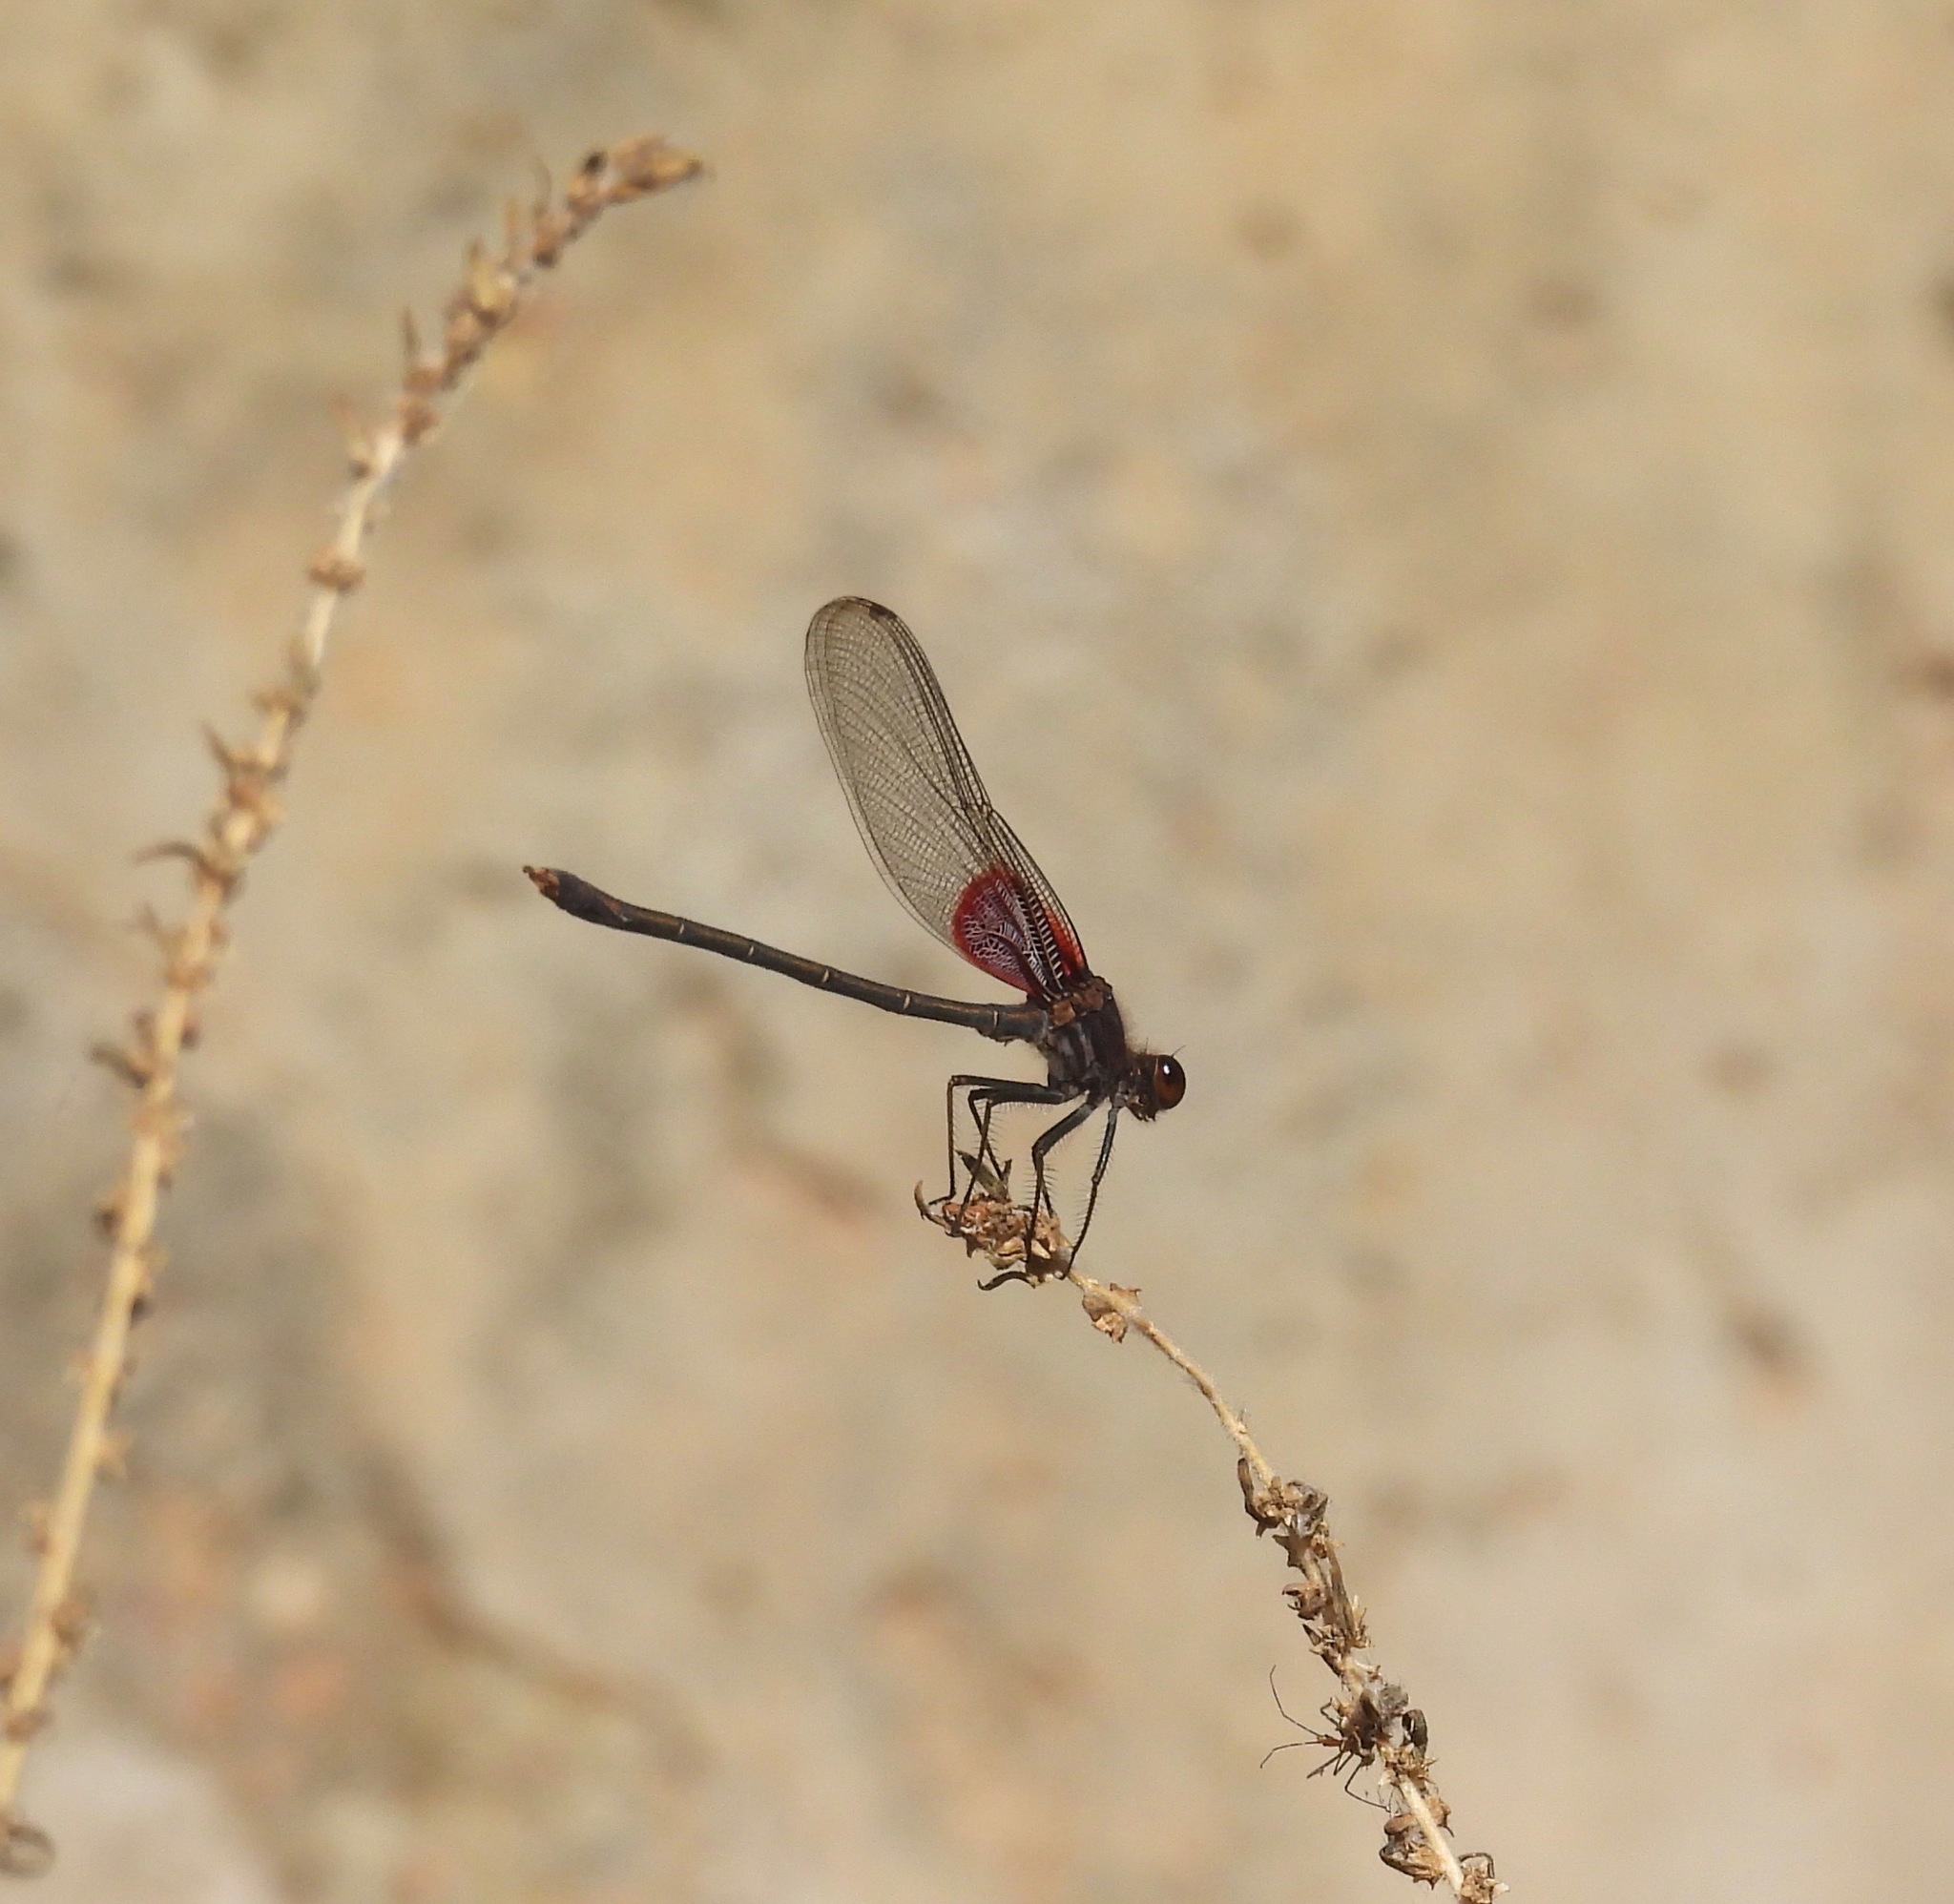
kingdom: Animalia
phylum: Arthropoda
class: Insecta
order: Odonata
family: Calopterygidae
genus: Hetaerina
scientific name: Hetaerina americana
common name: American rubyspot
